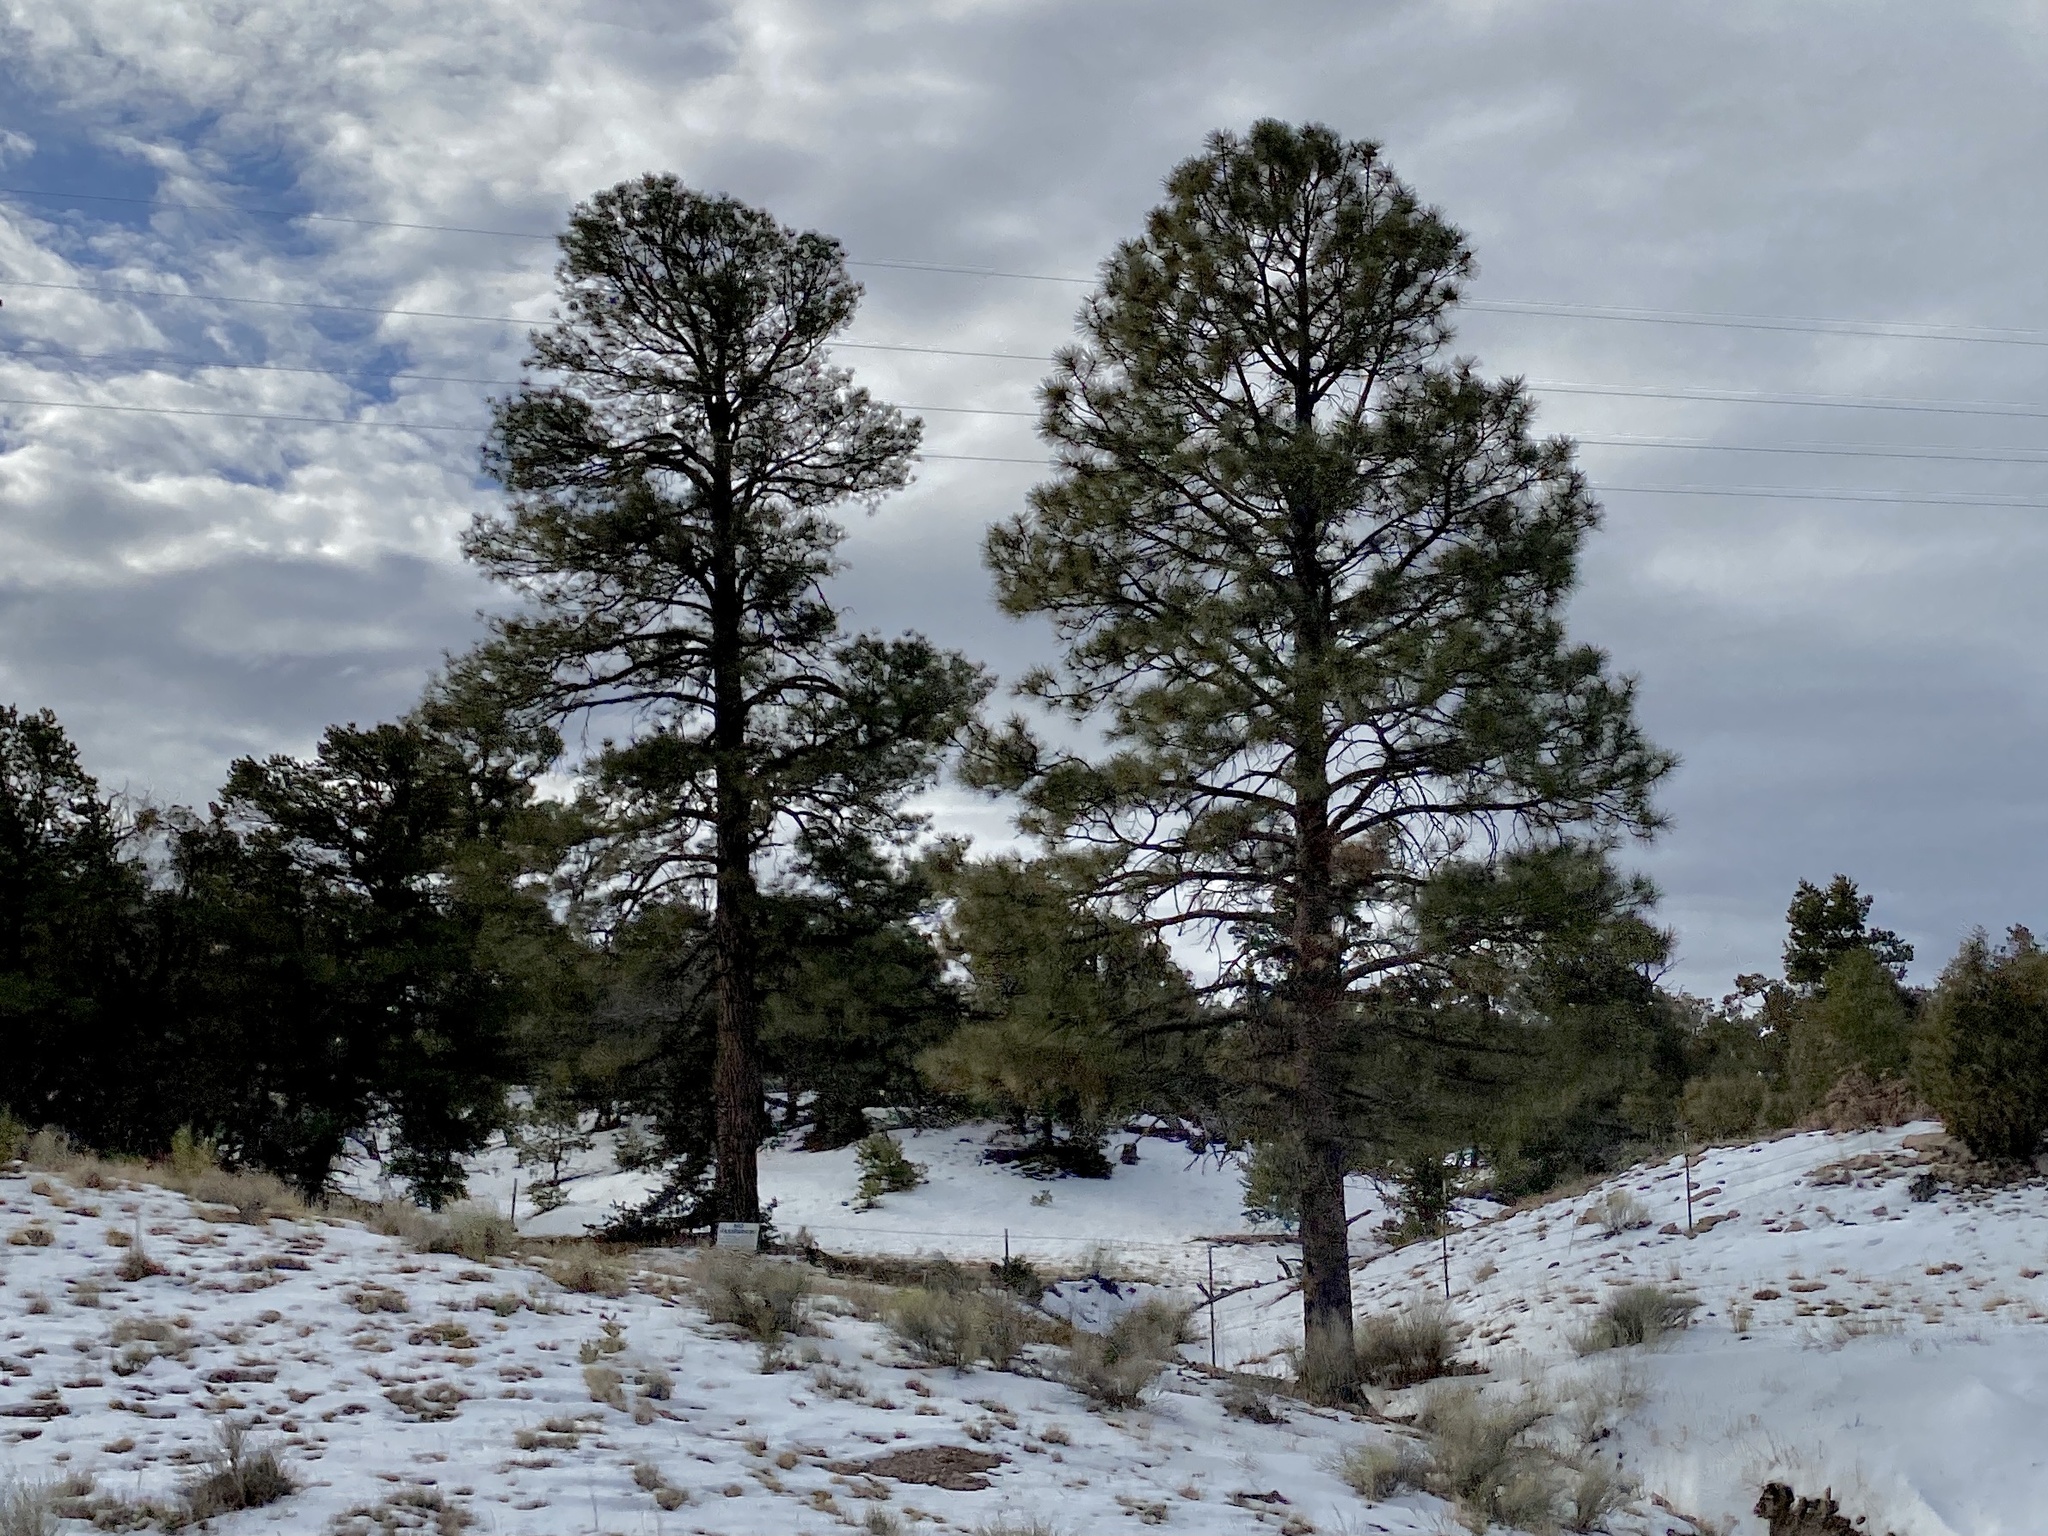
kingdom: Plantae
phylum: Tracheophyta
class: Pinopsida
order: Pinales
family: Pinaceae
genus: Pinus
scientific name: Pinus ponderosa
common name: Western yellow-pine
